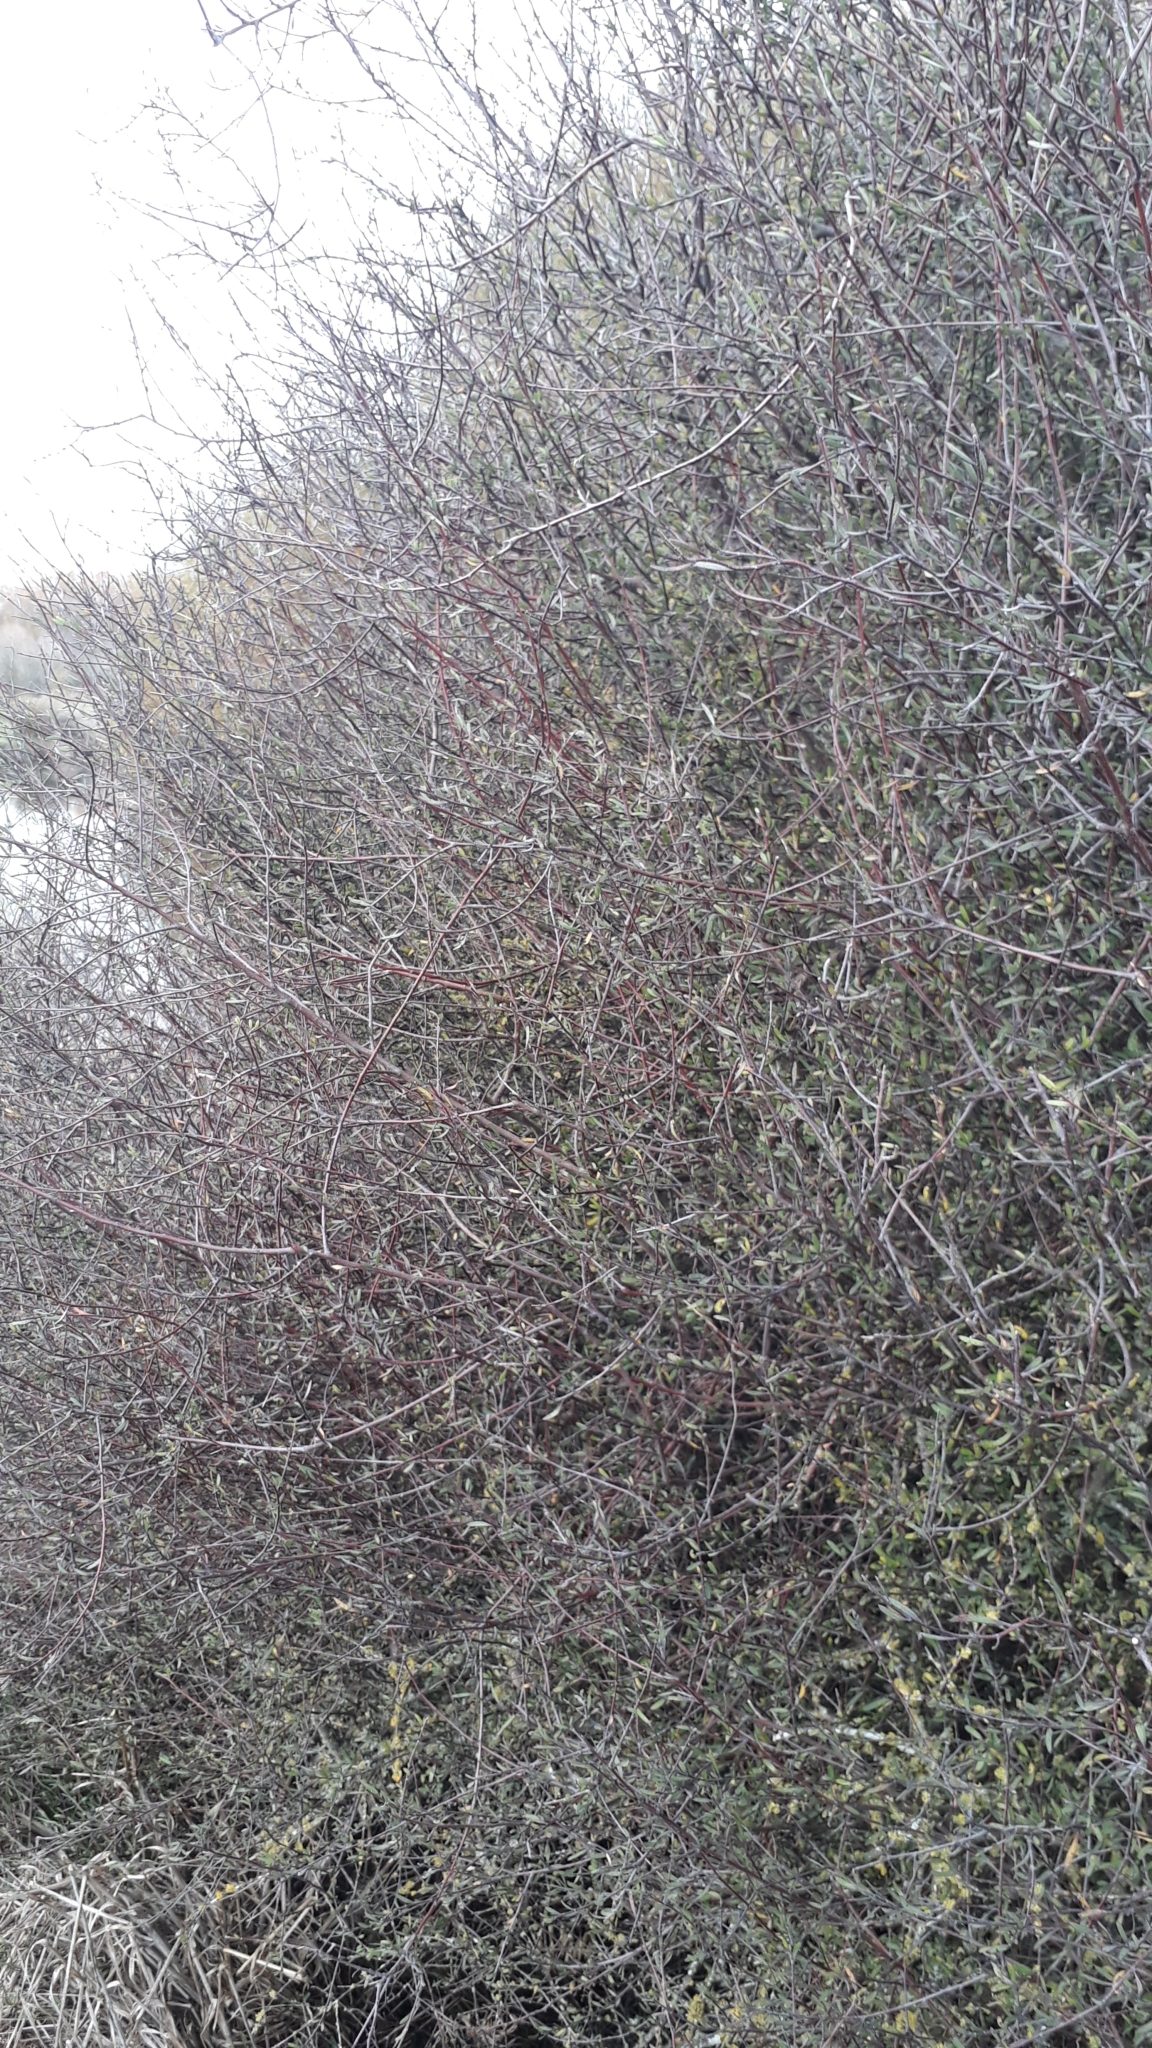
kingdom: Plantae
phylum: Tracheophyta
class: Magnoliopsida
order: Malvales
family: Malvaceae
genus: Plagianthus
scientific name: Plagianthus divaricatus
